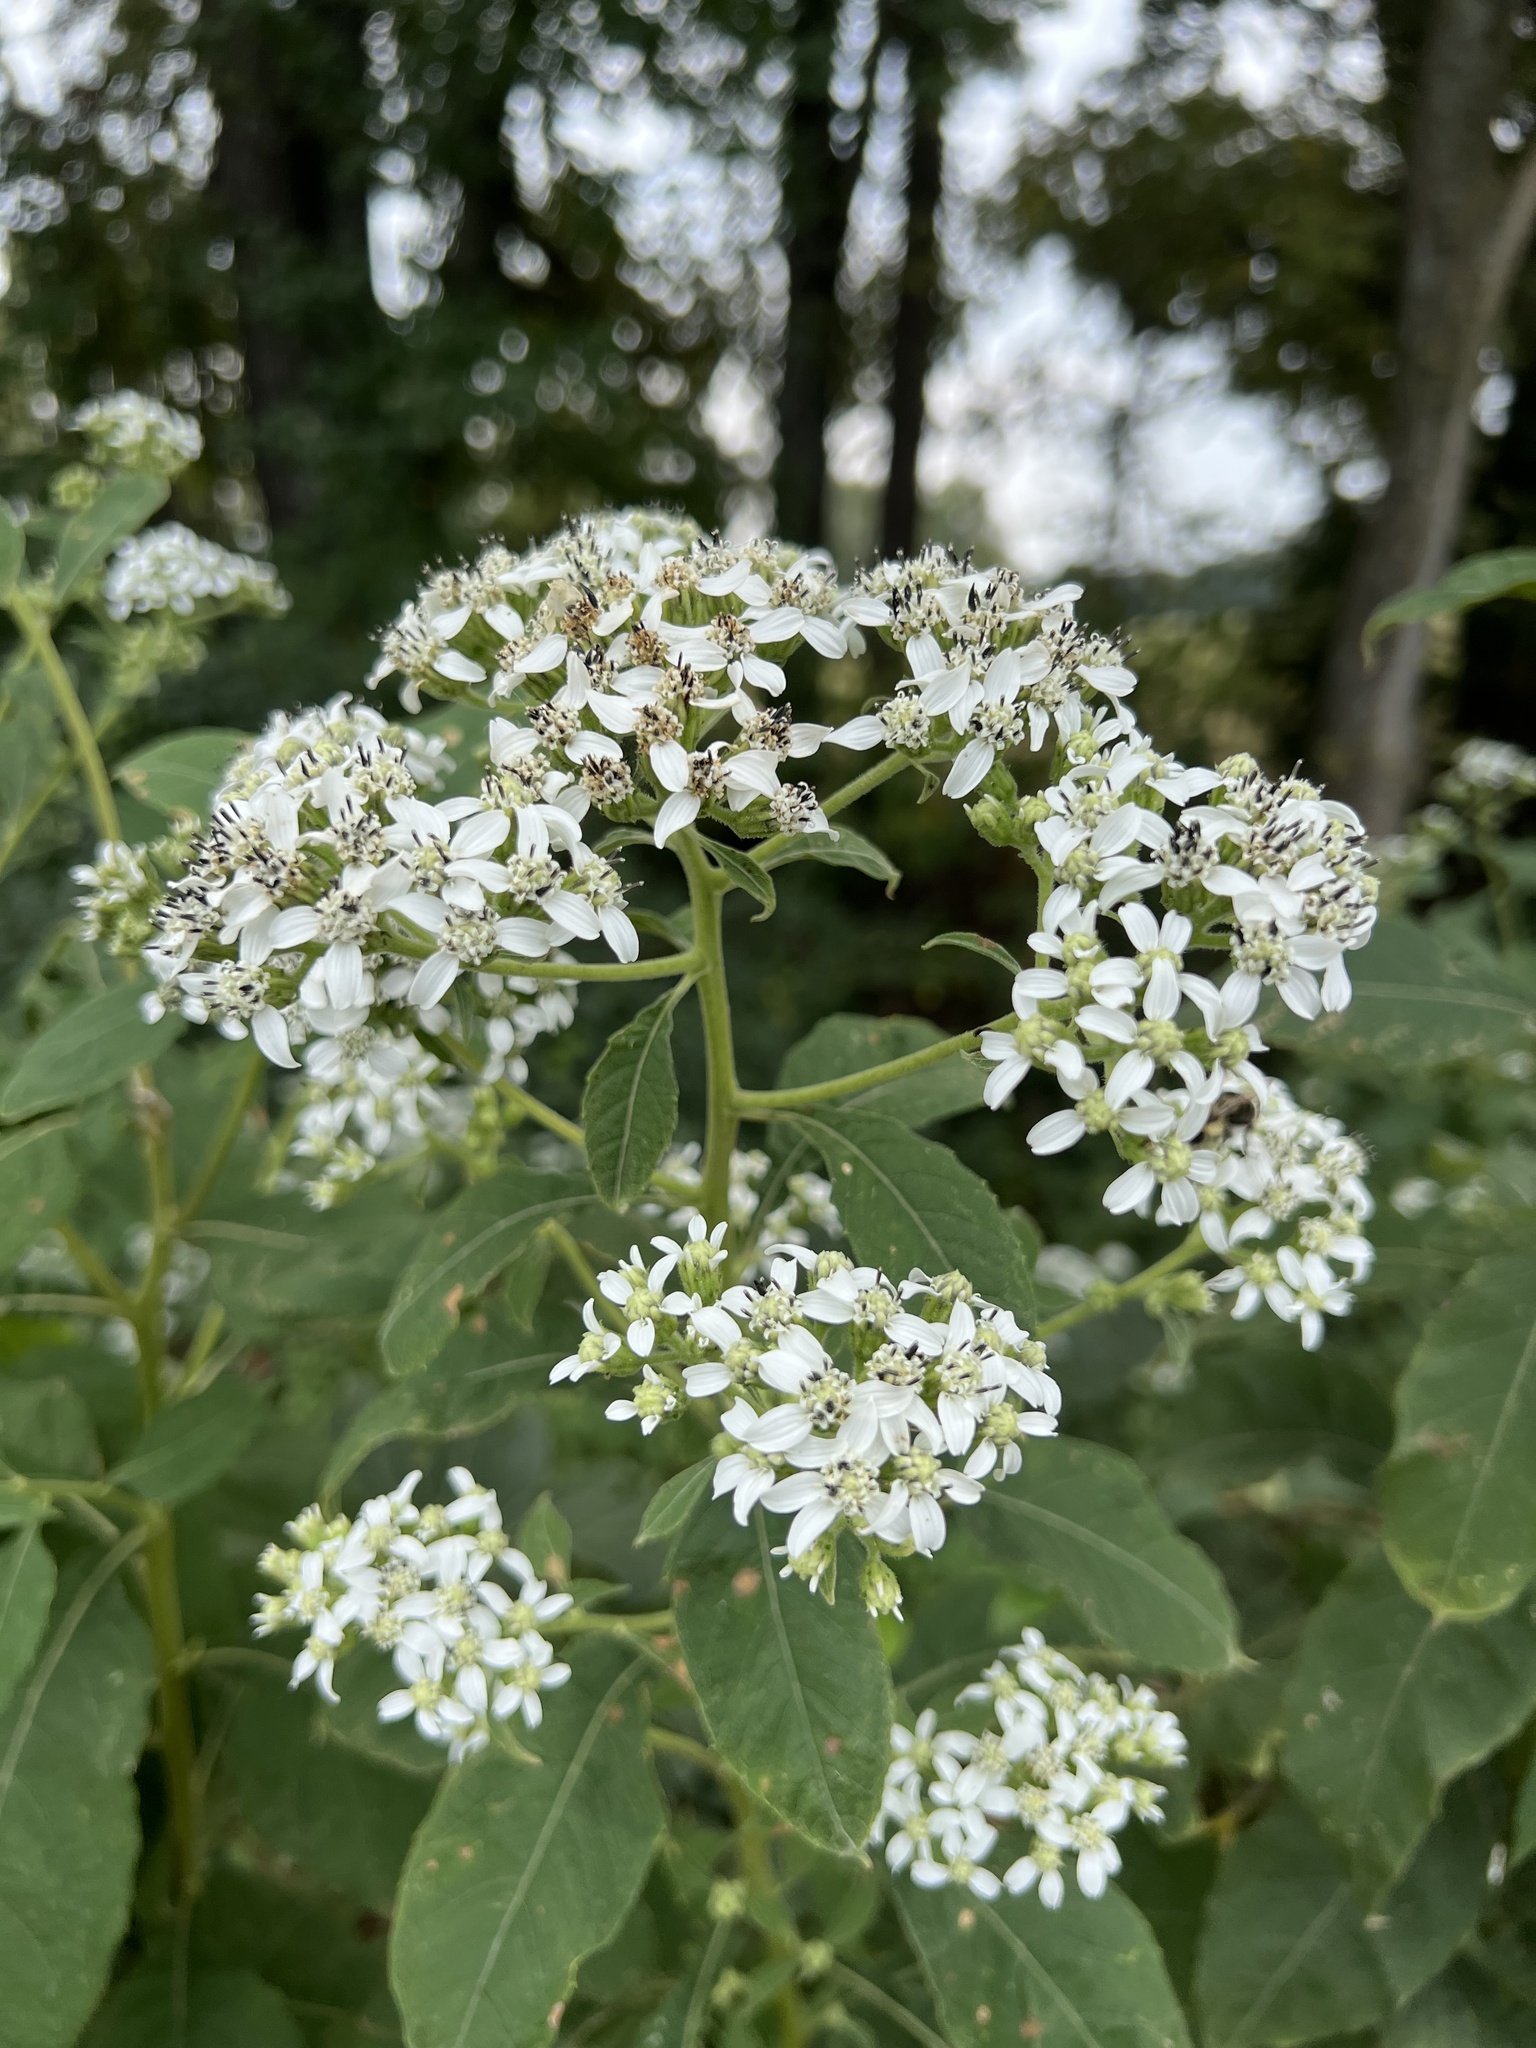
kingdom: Plantae
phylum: Tracheophyta
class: Magnoliopsida
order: Asterales
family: Asteraceae
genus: Verbesina
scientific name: Verbesina virginica
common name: Frostweed
